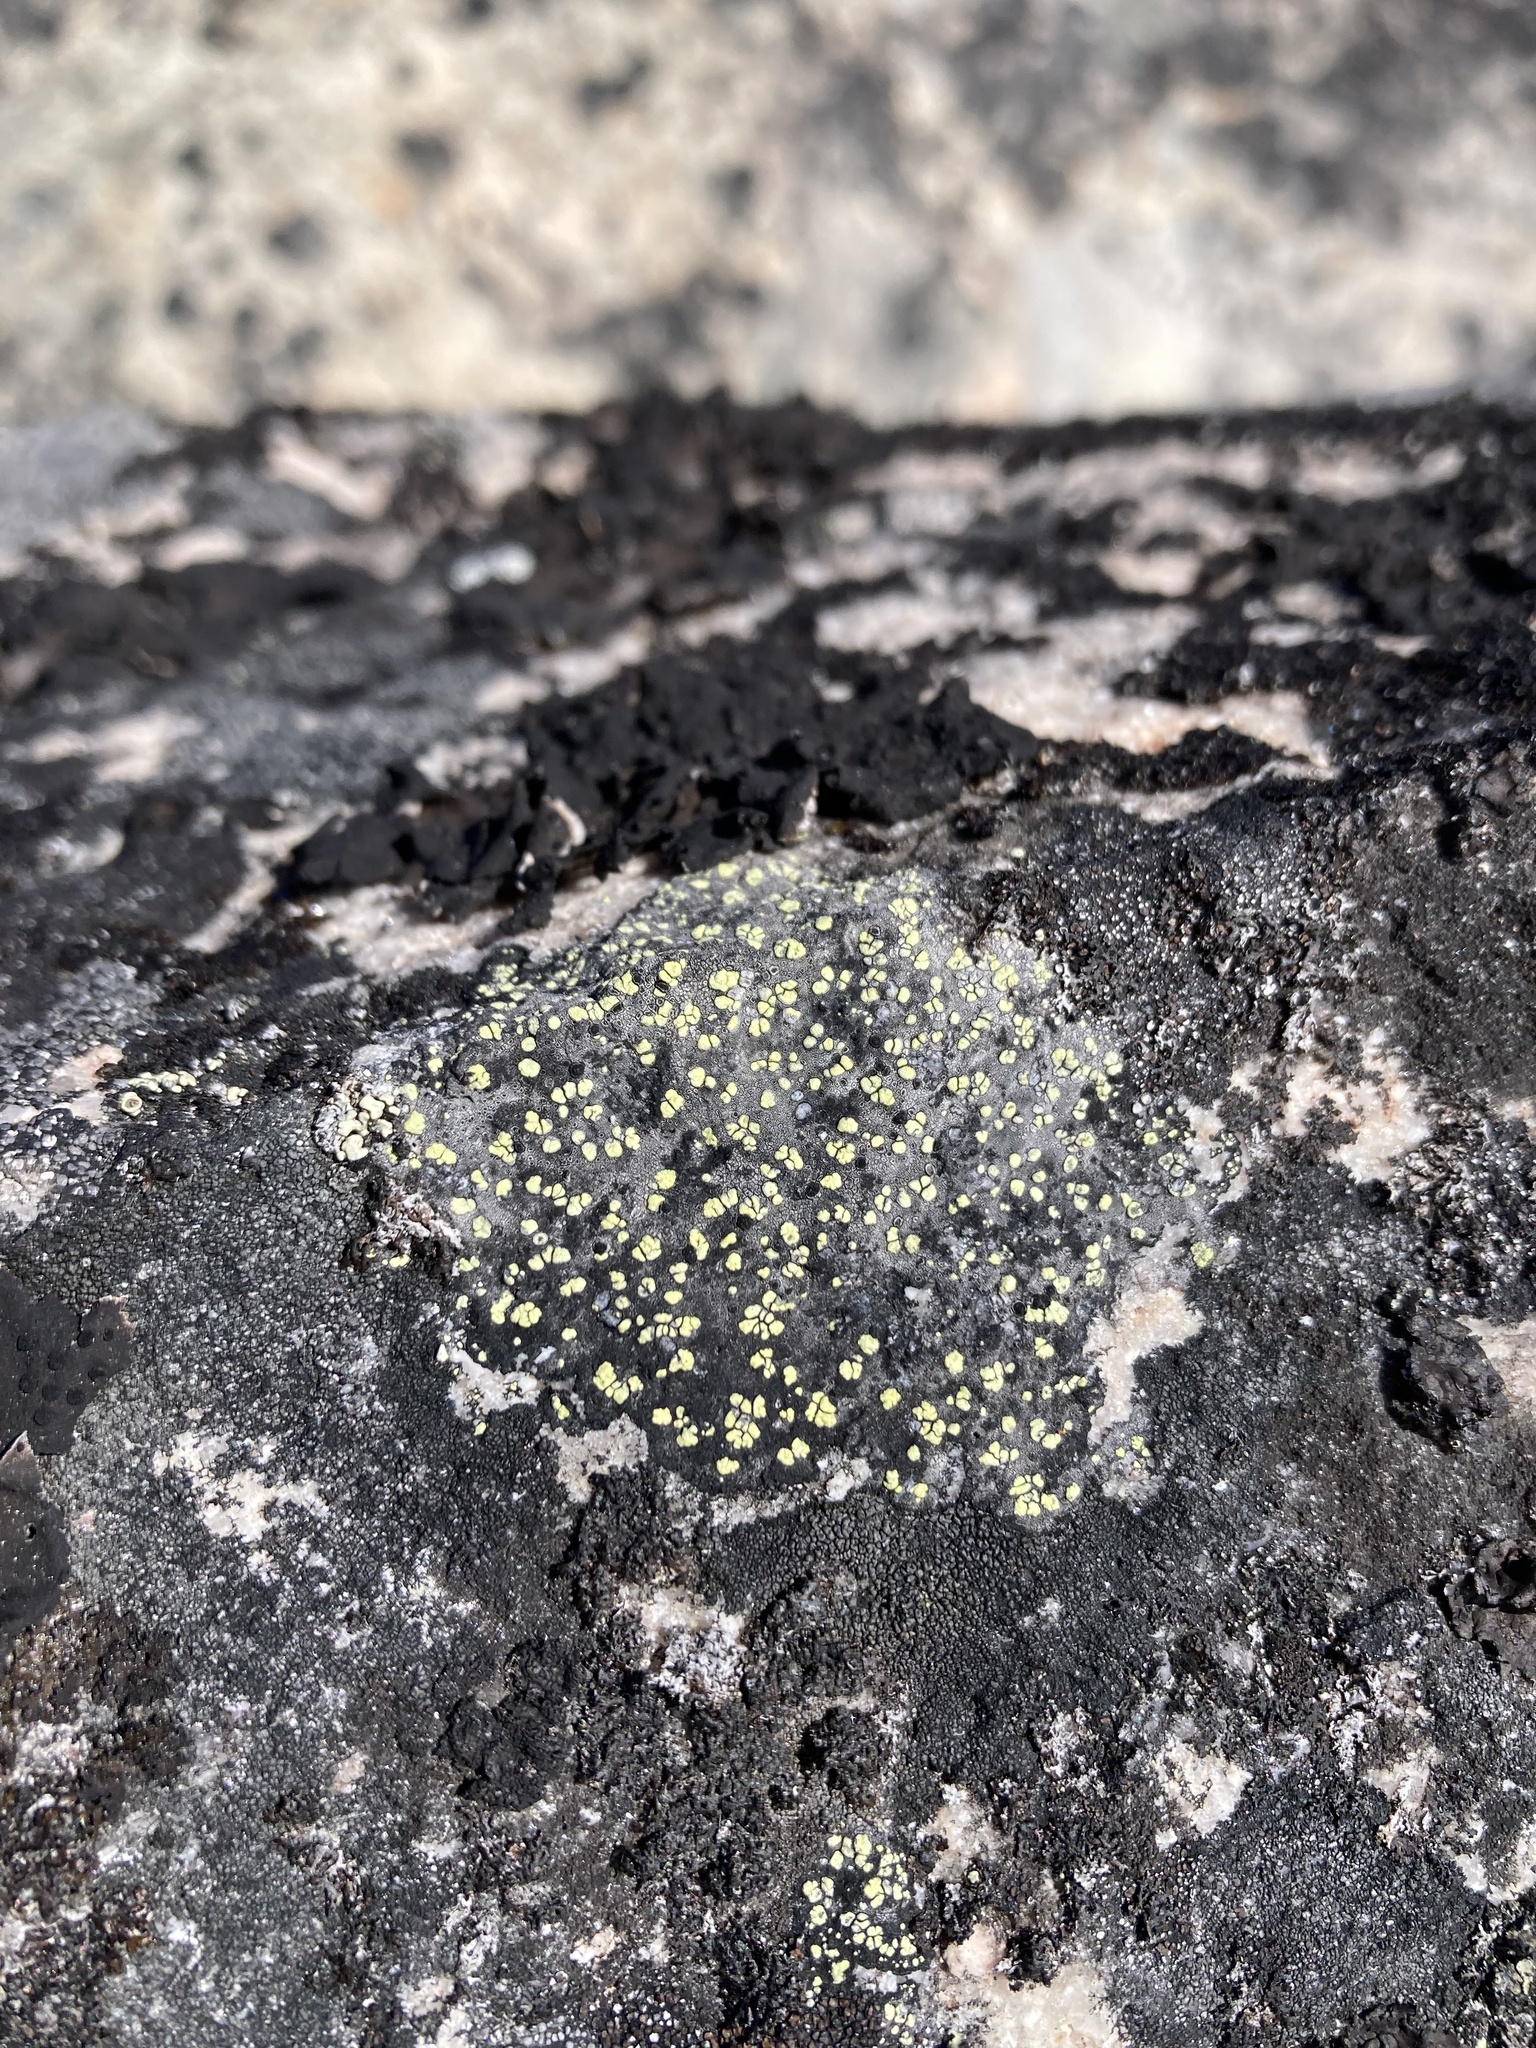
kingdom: Fungi
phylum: Ascomycota
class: Lecanoromycetes
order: Rhizocarpales
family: Rhizocarpaceae
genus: Rhizocarpon
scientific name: Rhizocarpon geographicum
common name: Yellow map lichen
